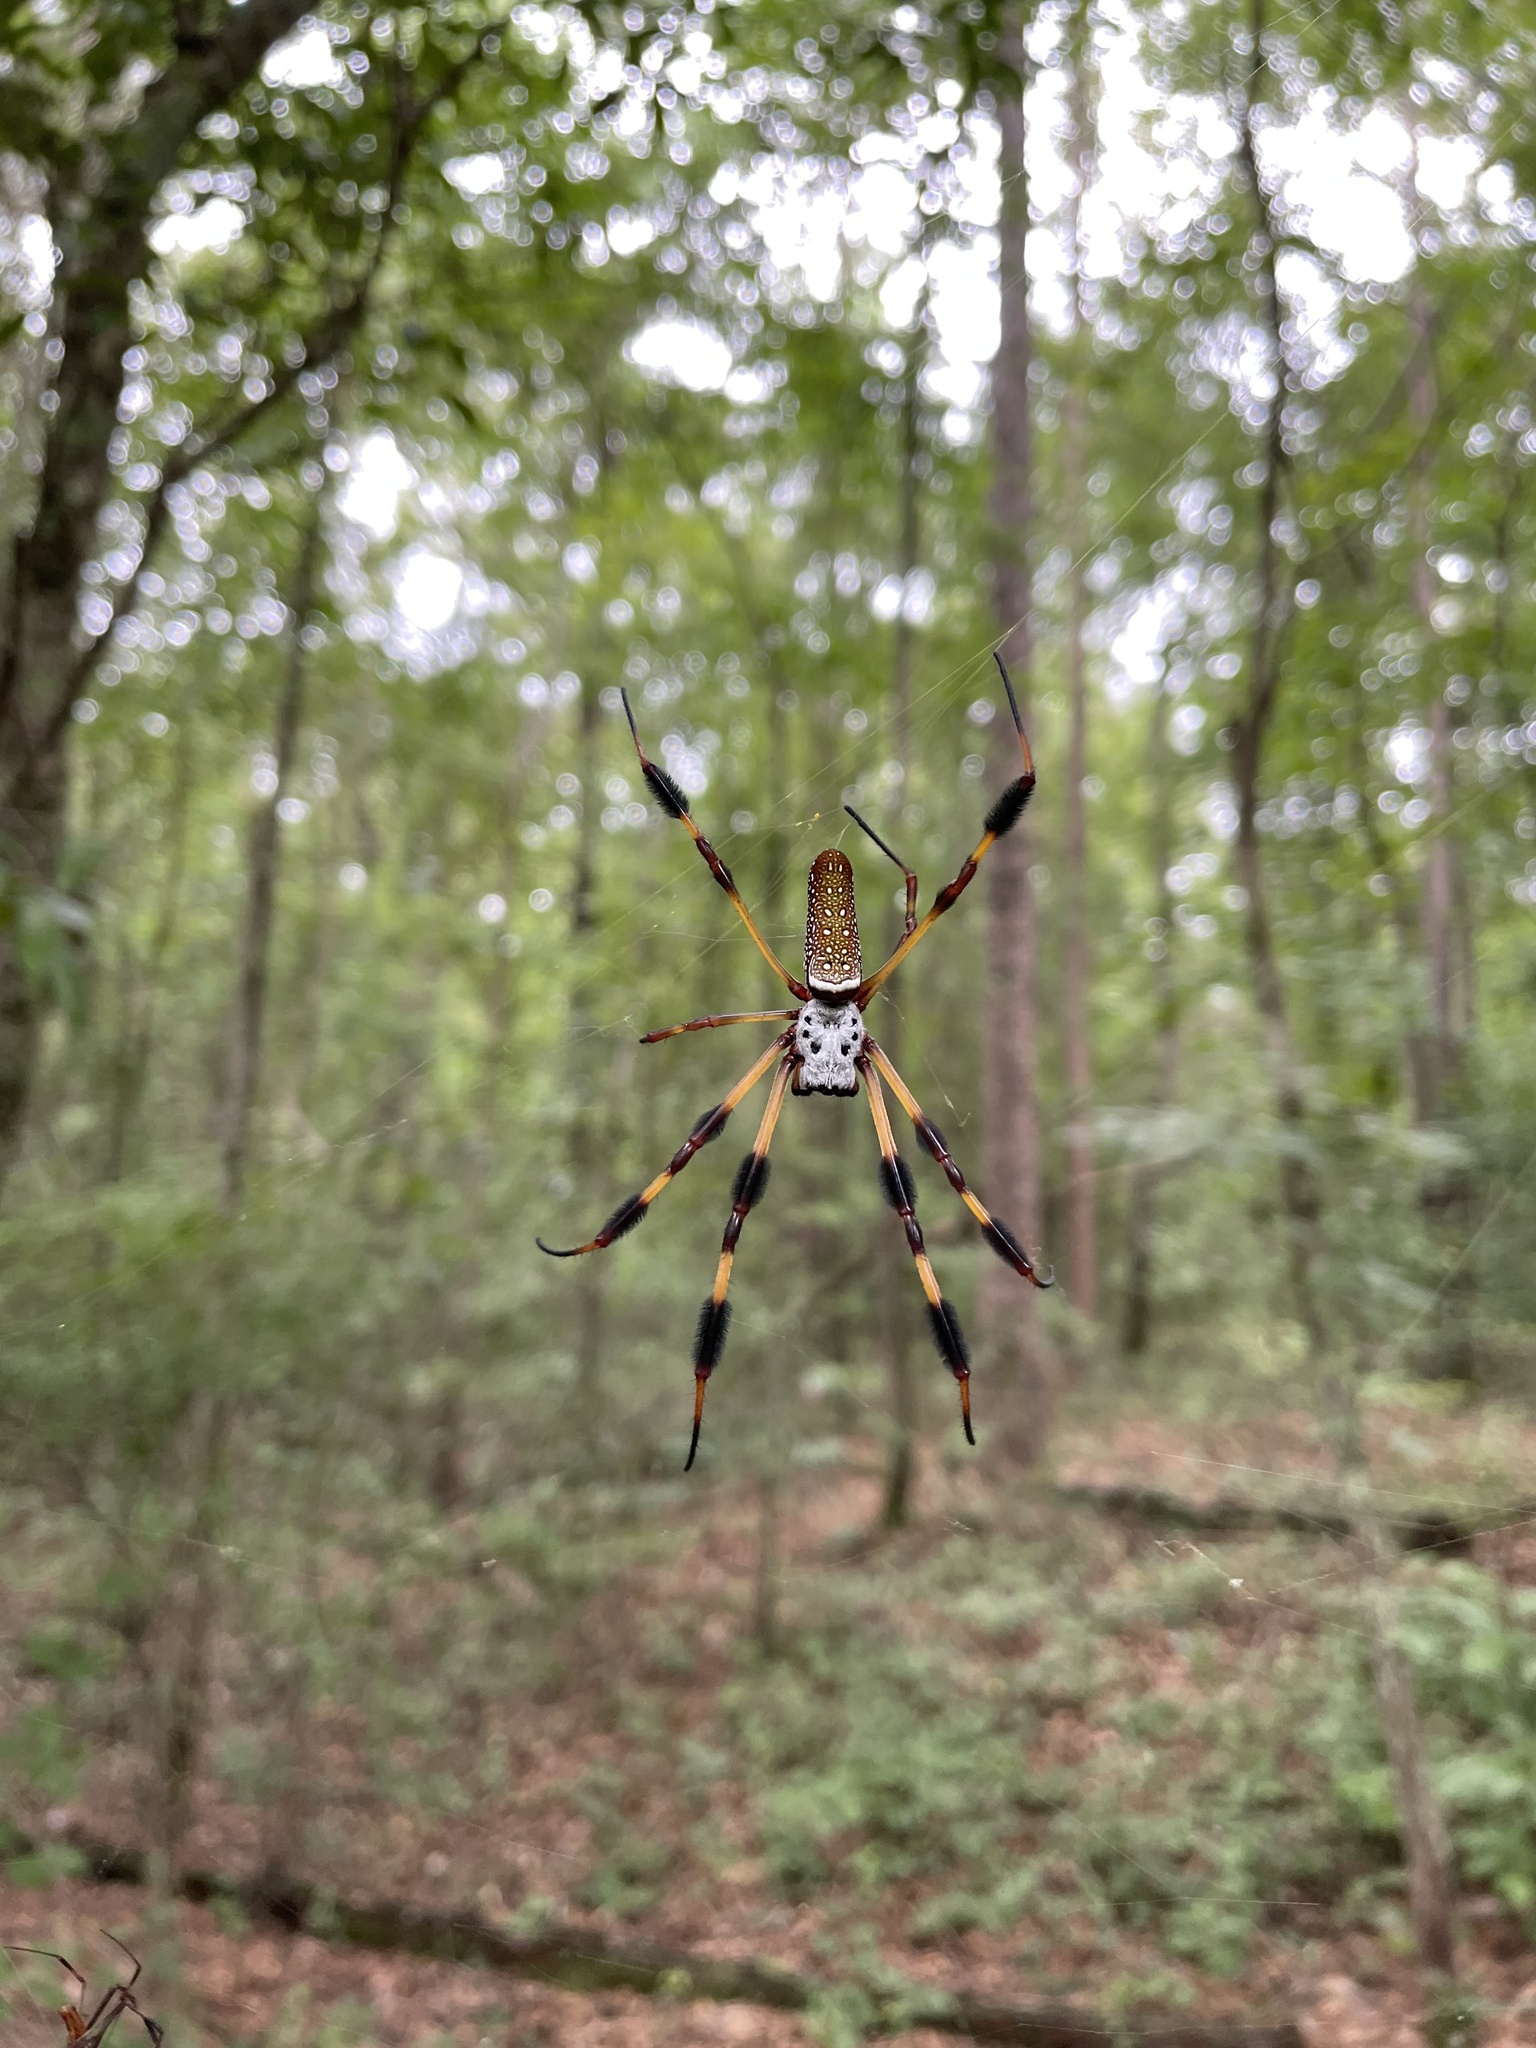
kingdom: Animalia
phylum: Arthropoda
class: Arachnida
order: Araneae
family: Araneidae
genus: Trichonephila
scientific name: Trichonephila clavipes
